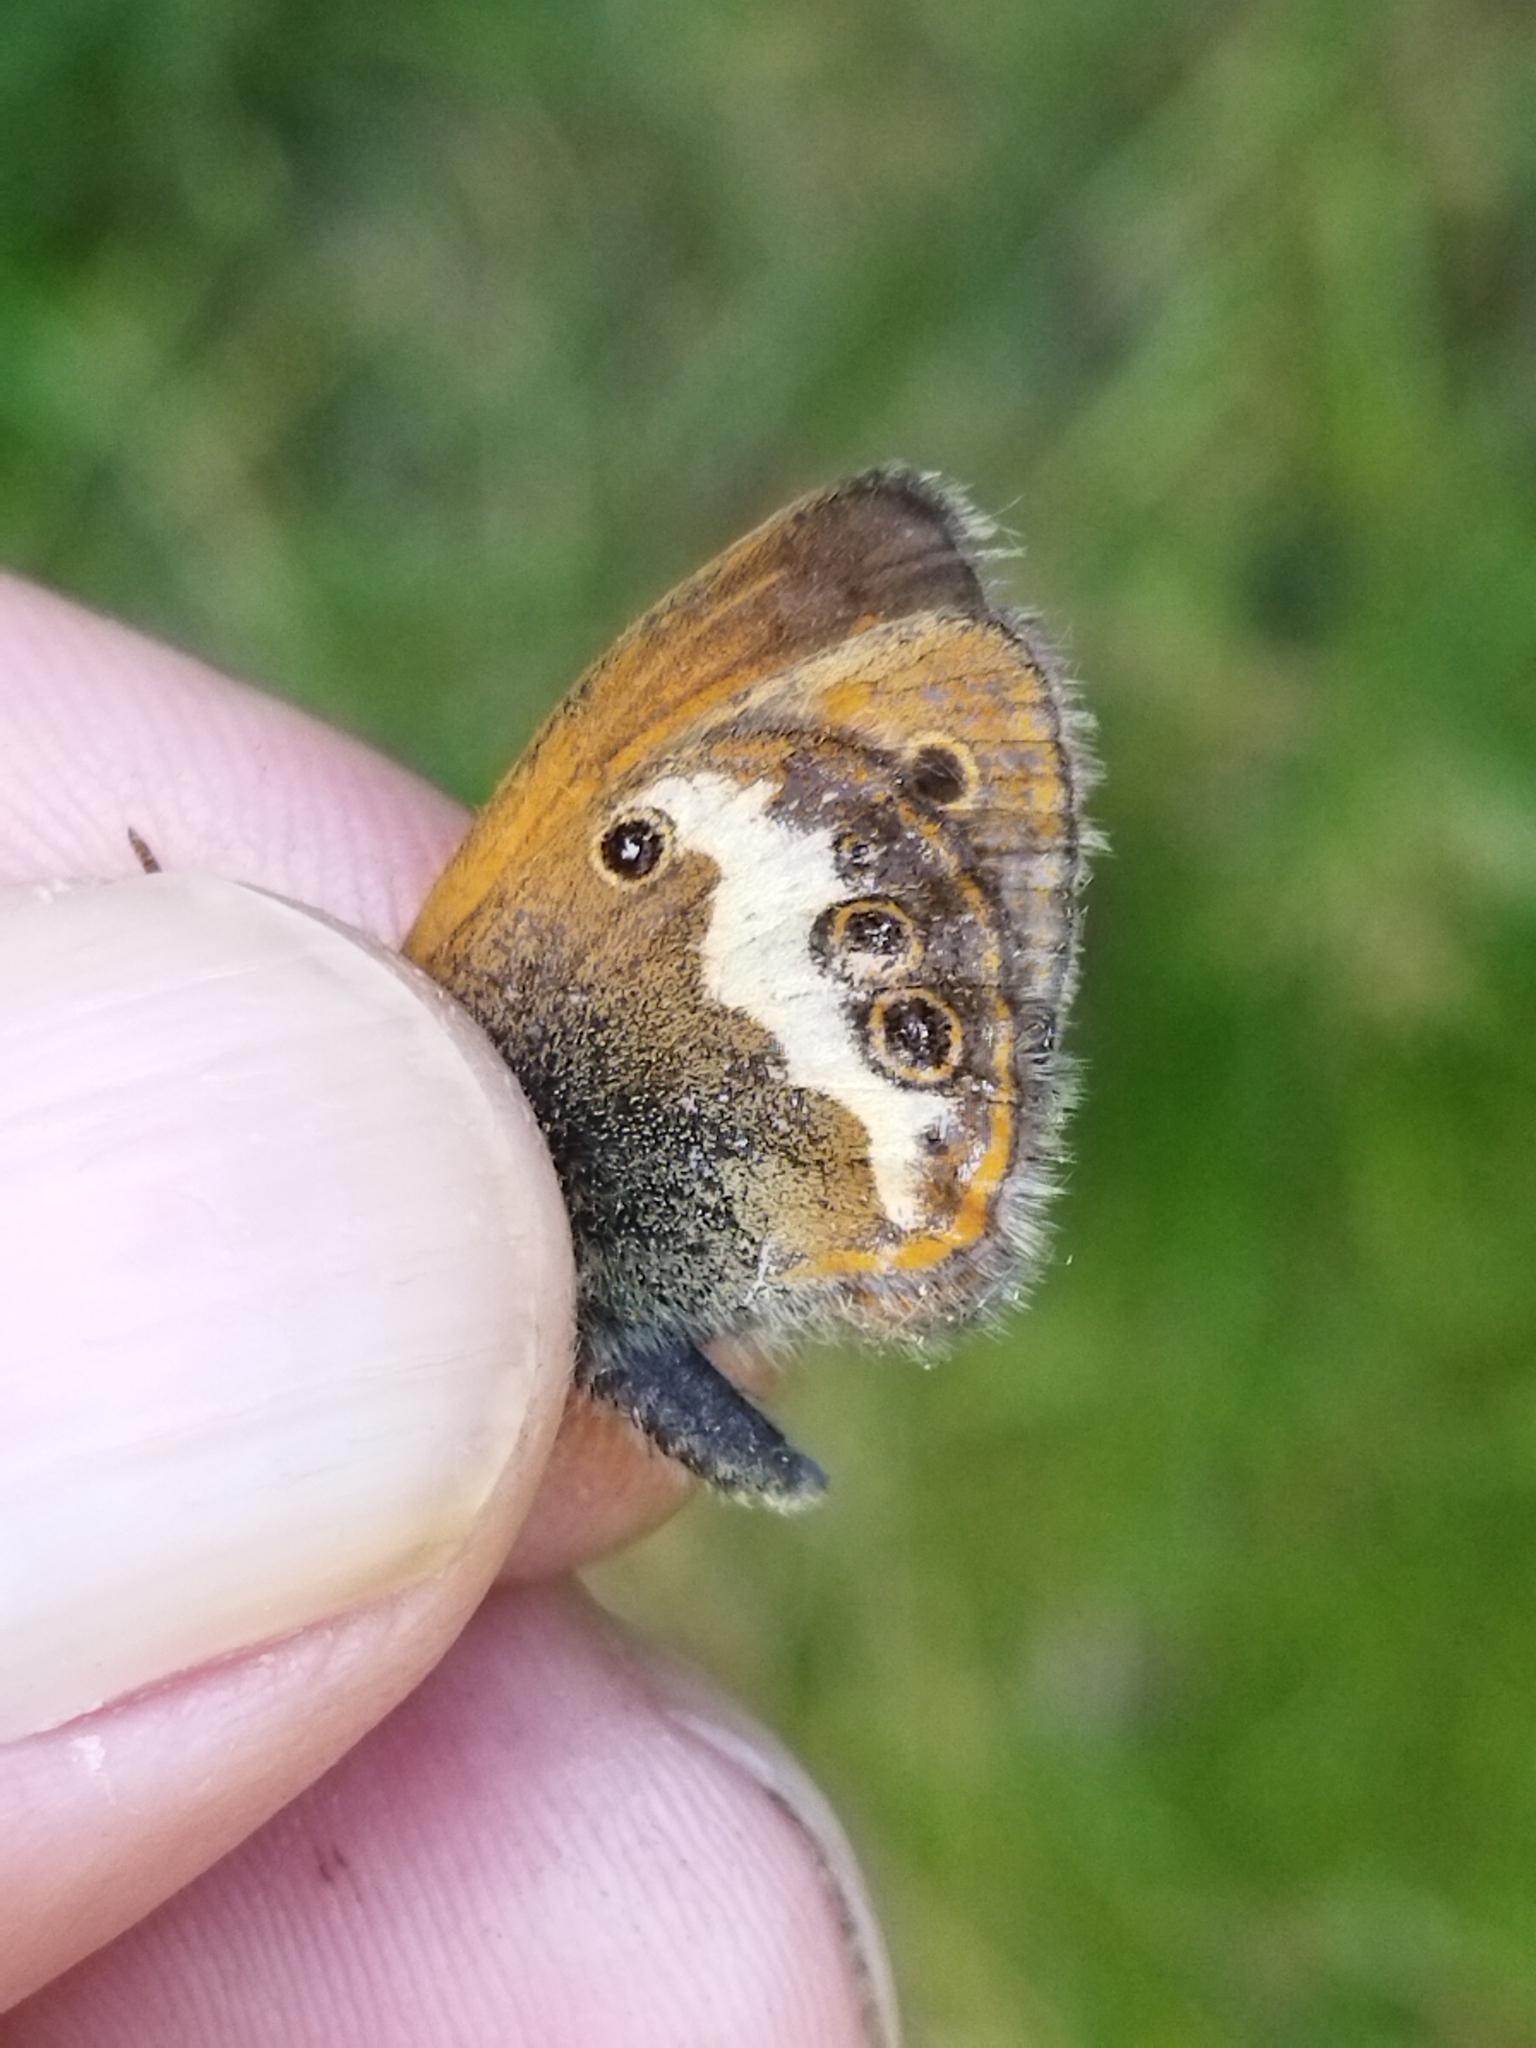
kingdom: Animalia
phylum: Arthropoda
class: Insecta
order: Lepidoptera
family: Nymphalidae
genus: Coenonympha
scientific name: Coenonympha arcania
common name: Pearly heath
